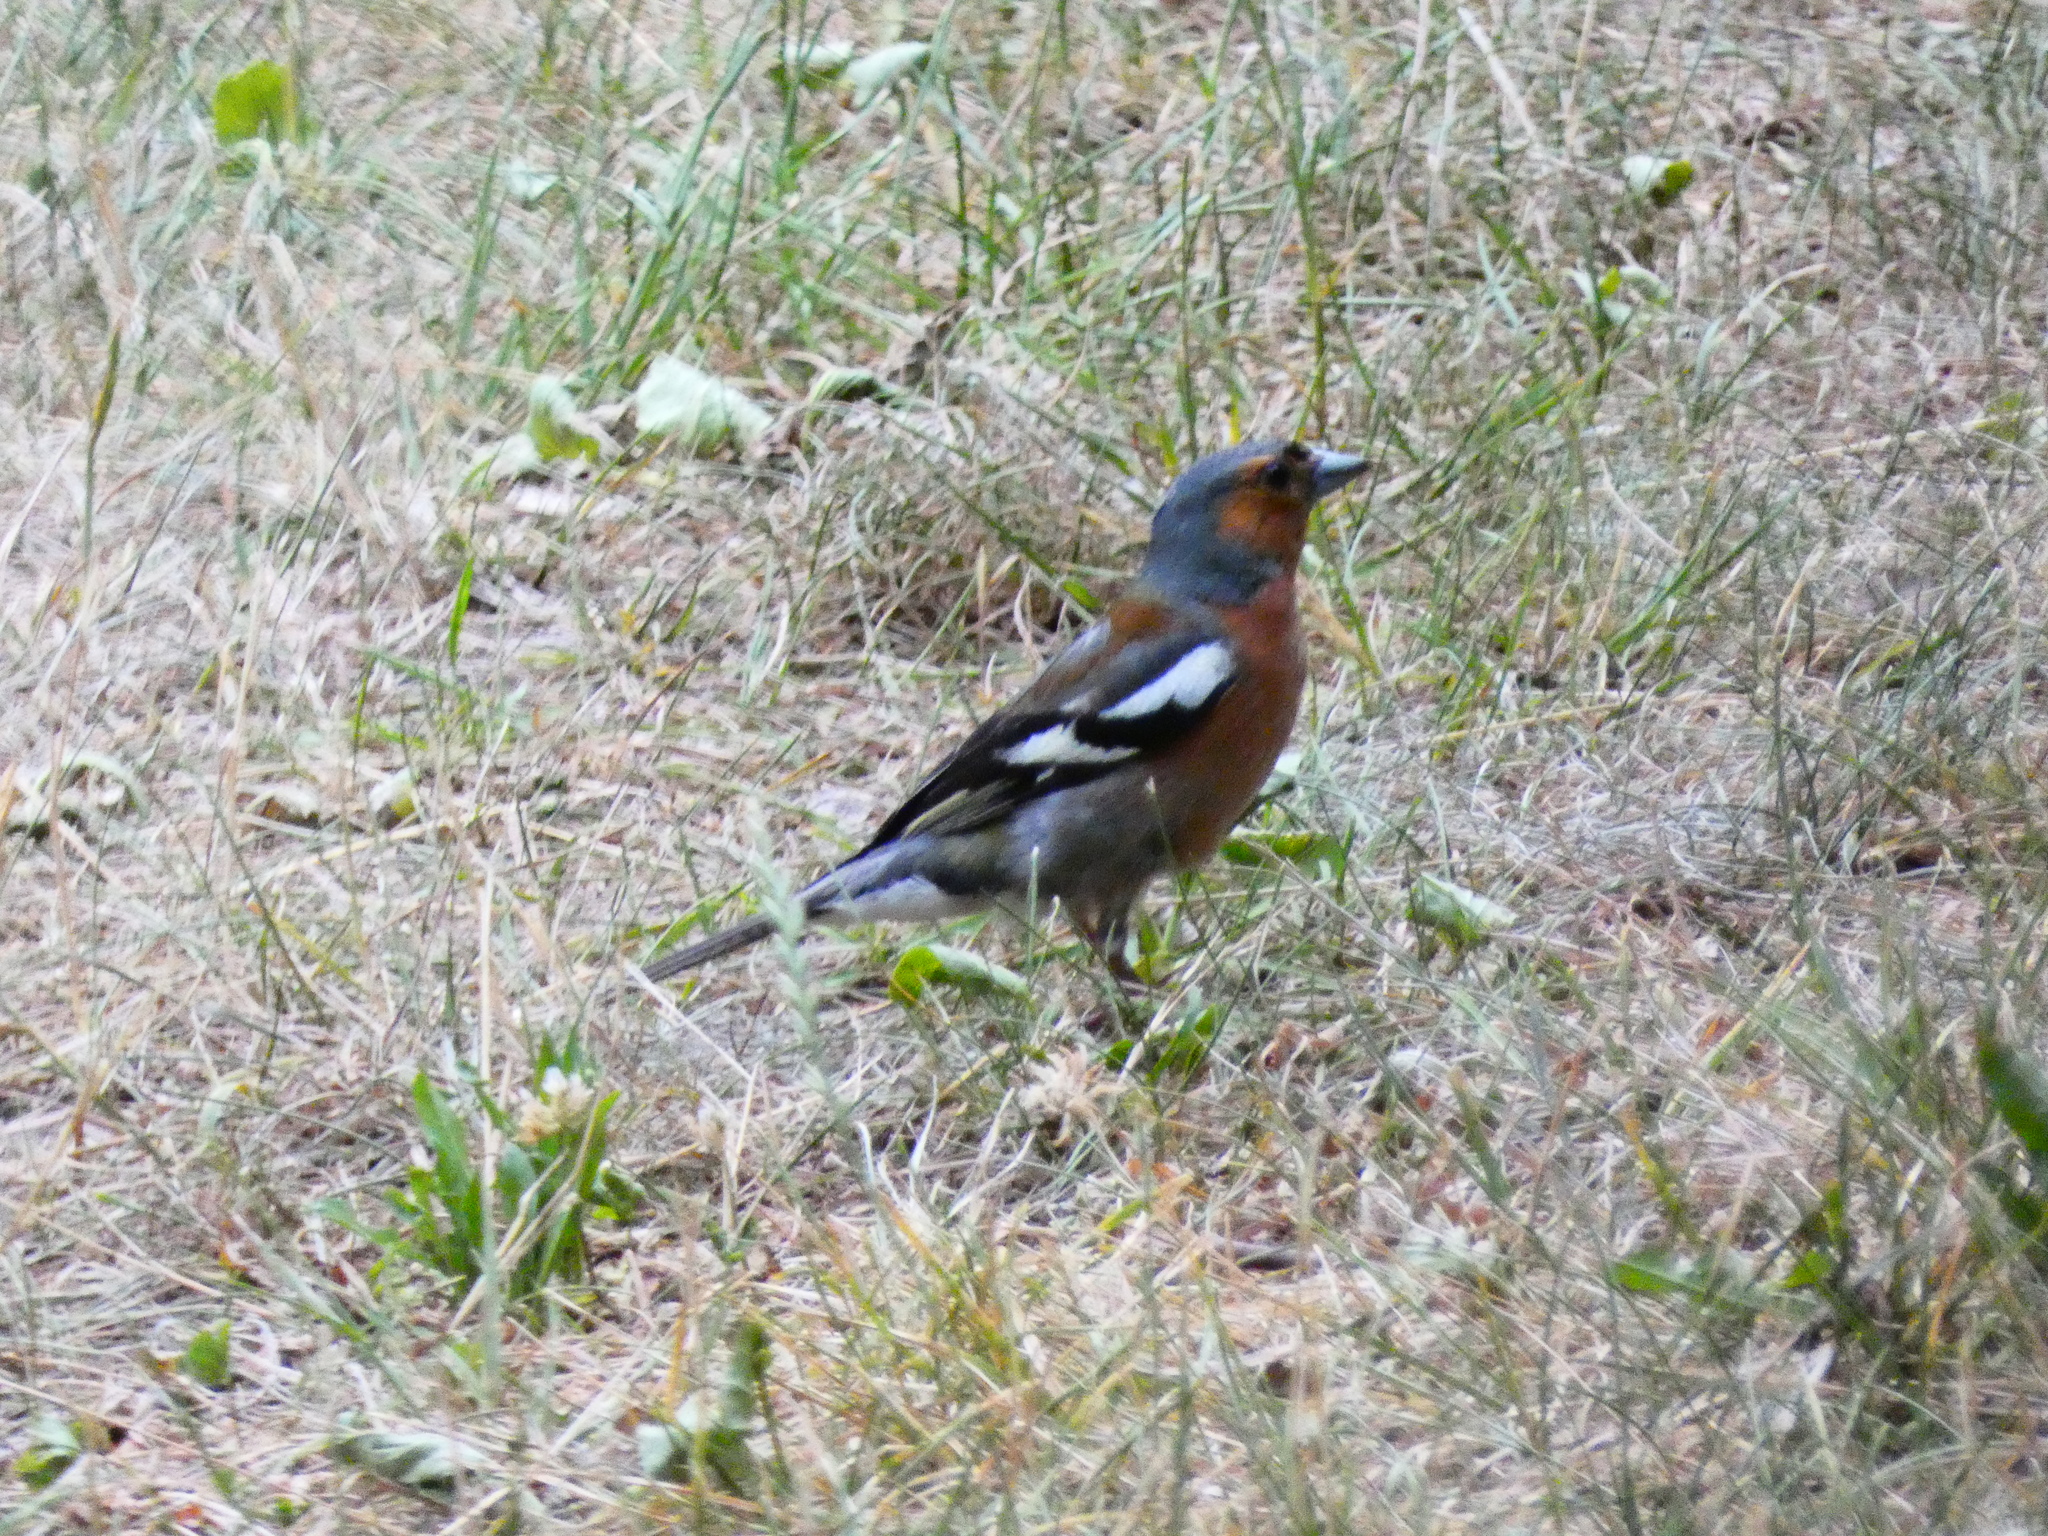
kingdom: Animalia
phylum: Chordata
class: Aves
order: Passeriformes
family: Fringillidae
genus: Fringilla
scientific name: Fringilla coelebs
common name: Common chaffinch
